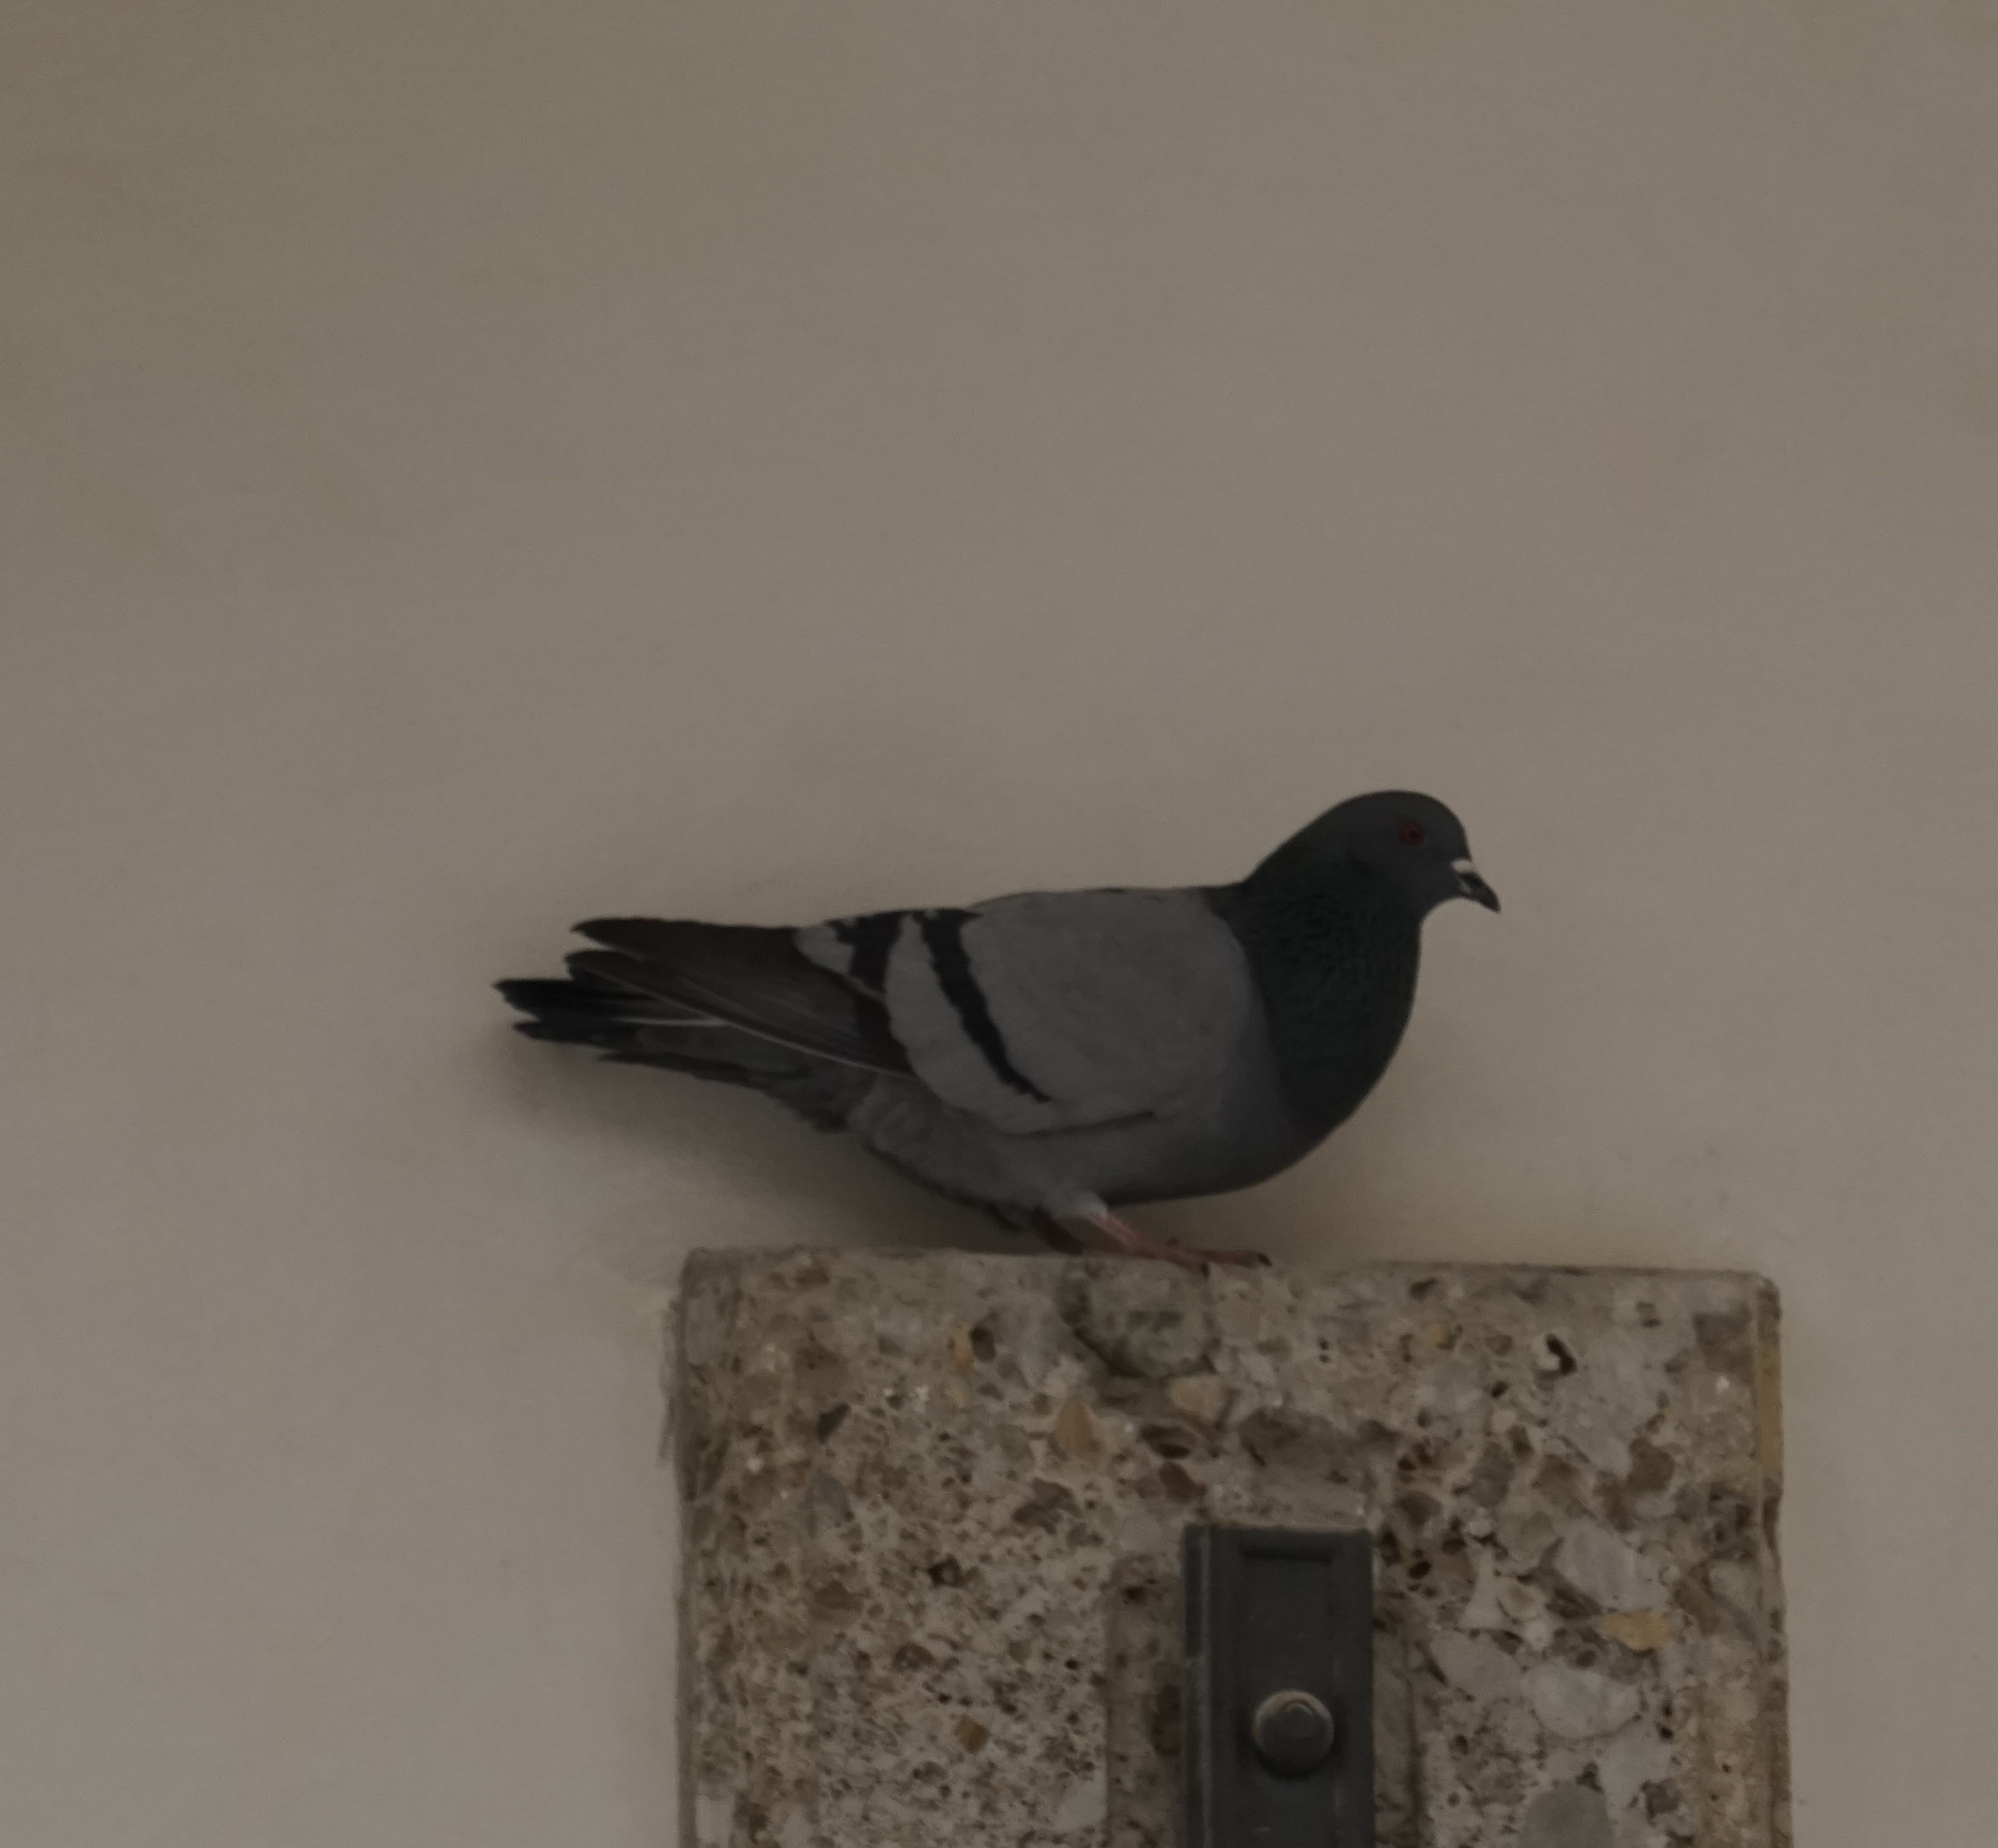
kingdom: Animalia
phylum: Chordata
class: Aves
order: Columbiformes
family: Columbidae
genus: Columba
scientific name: Columba livia
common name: Rock pigeon
